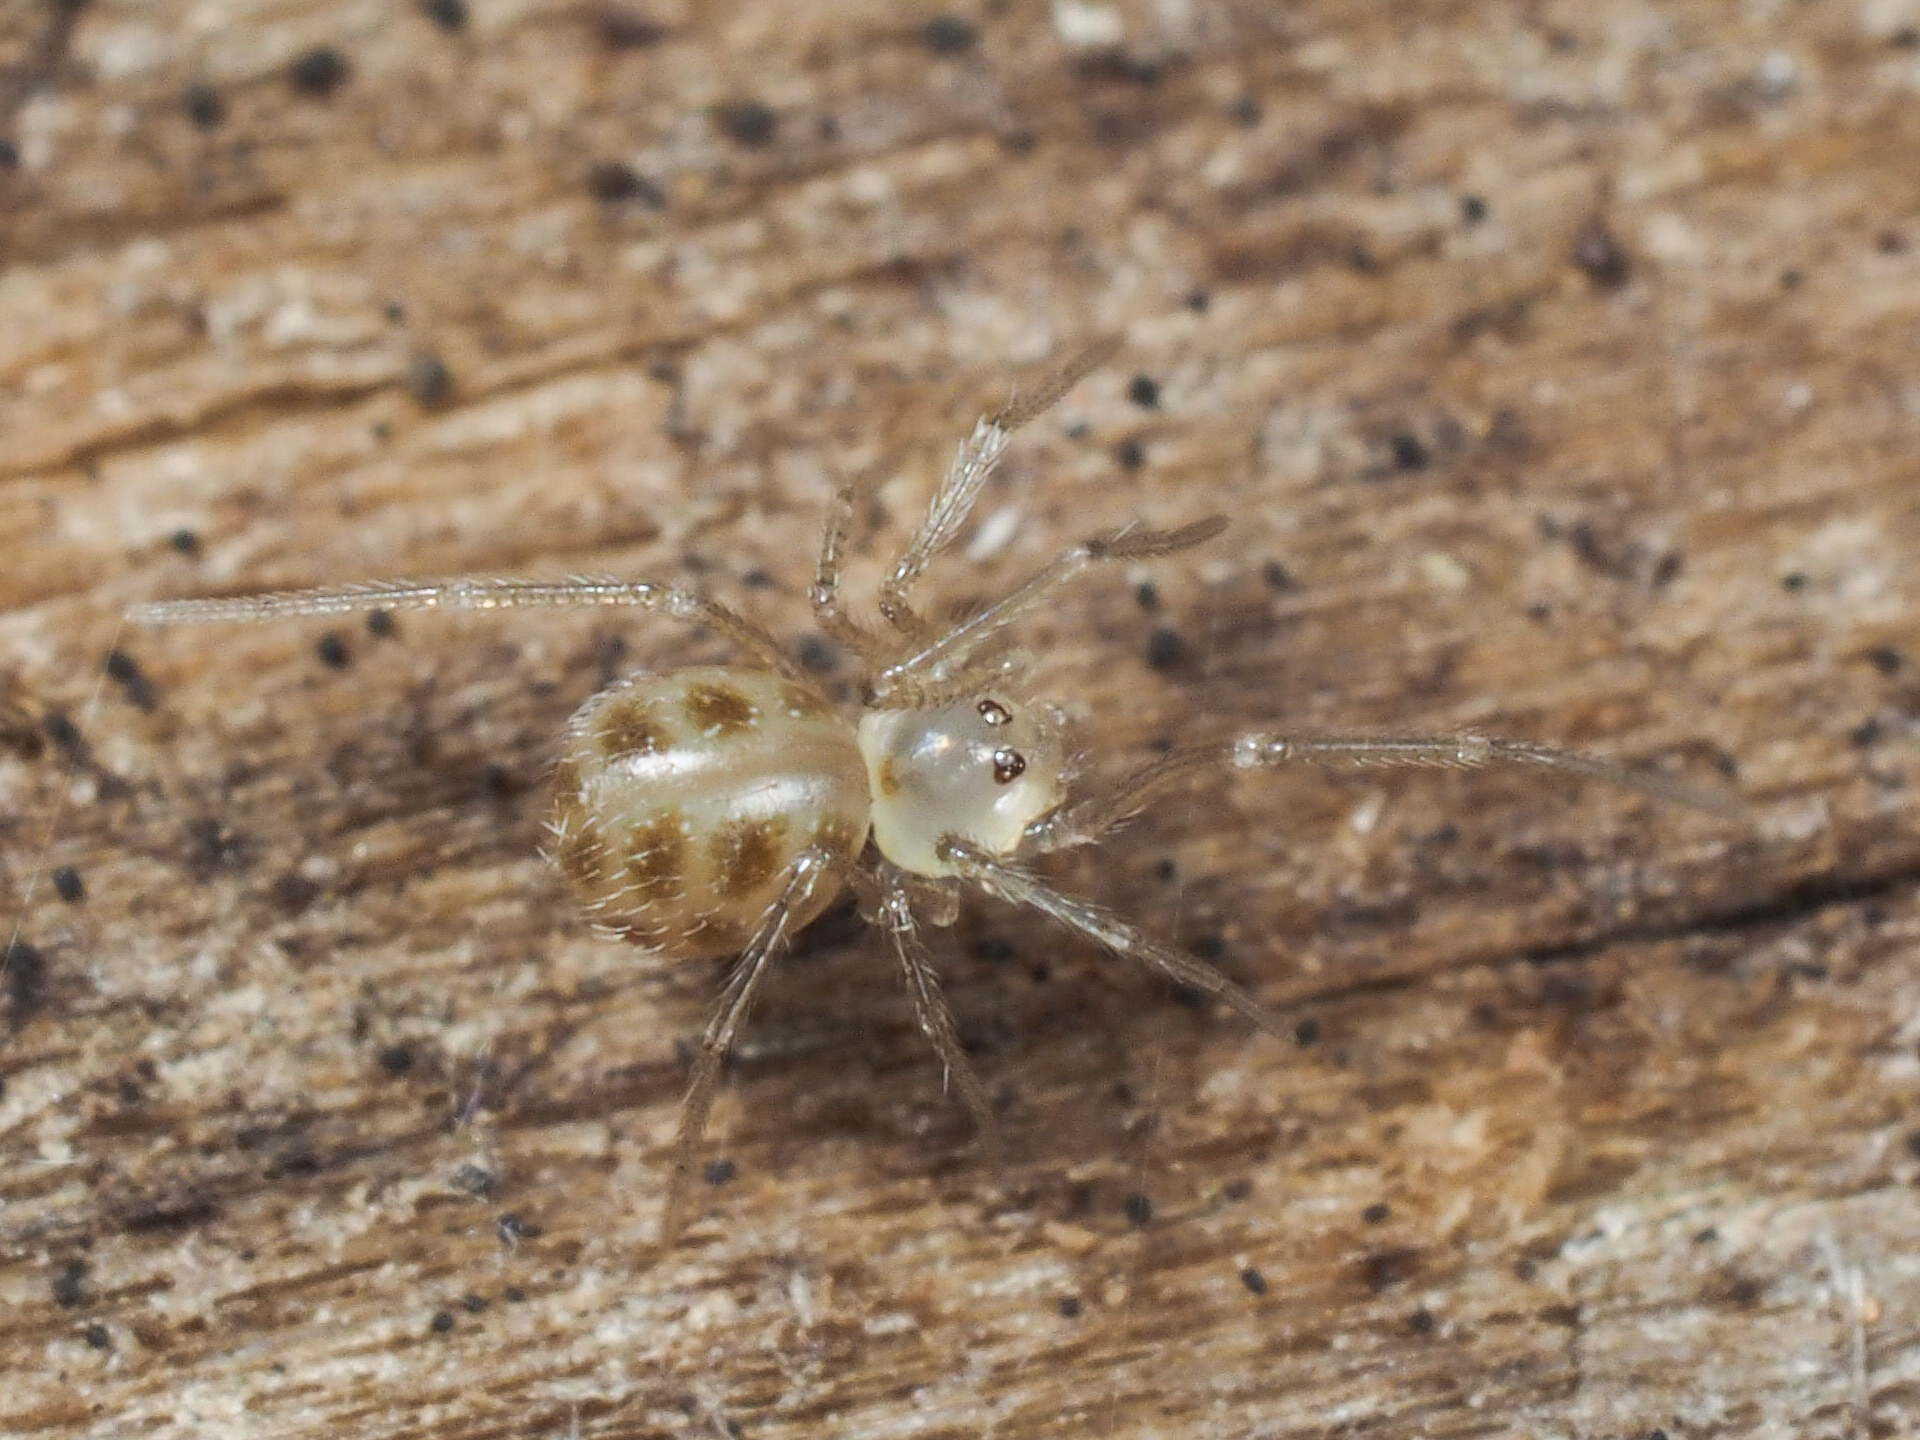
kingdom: Animalia
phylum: Arthropoda
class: Arachnida
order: Araneae
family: Pholcidae
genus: Spermophora
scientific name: Spermophora senoculata
